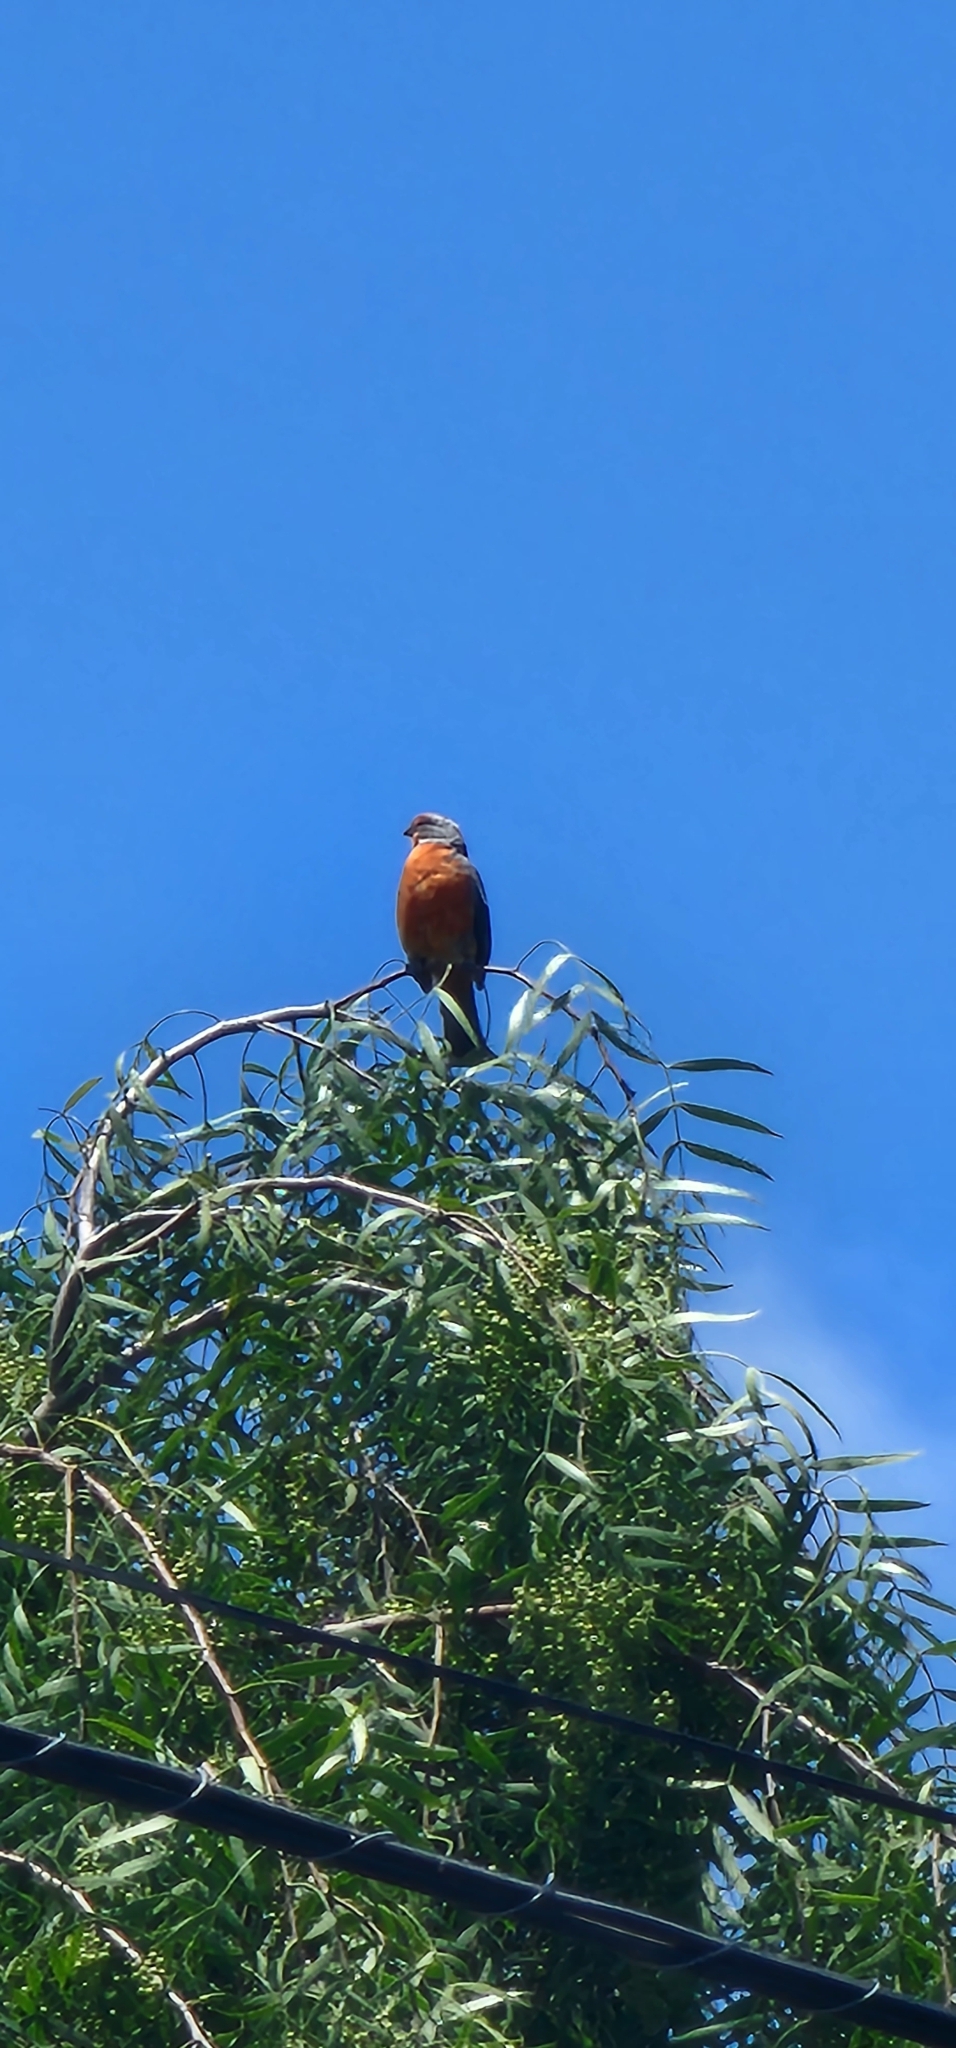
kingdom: Animalia
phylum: Chordata
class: Aves
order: Passeriformes
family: Cotingidae
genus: Phytotoma
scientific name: Phytotoma rutila
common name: White-tipped plantcutter
